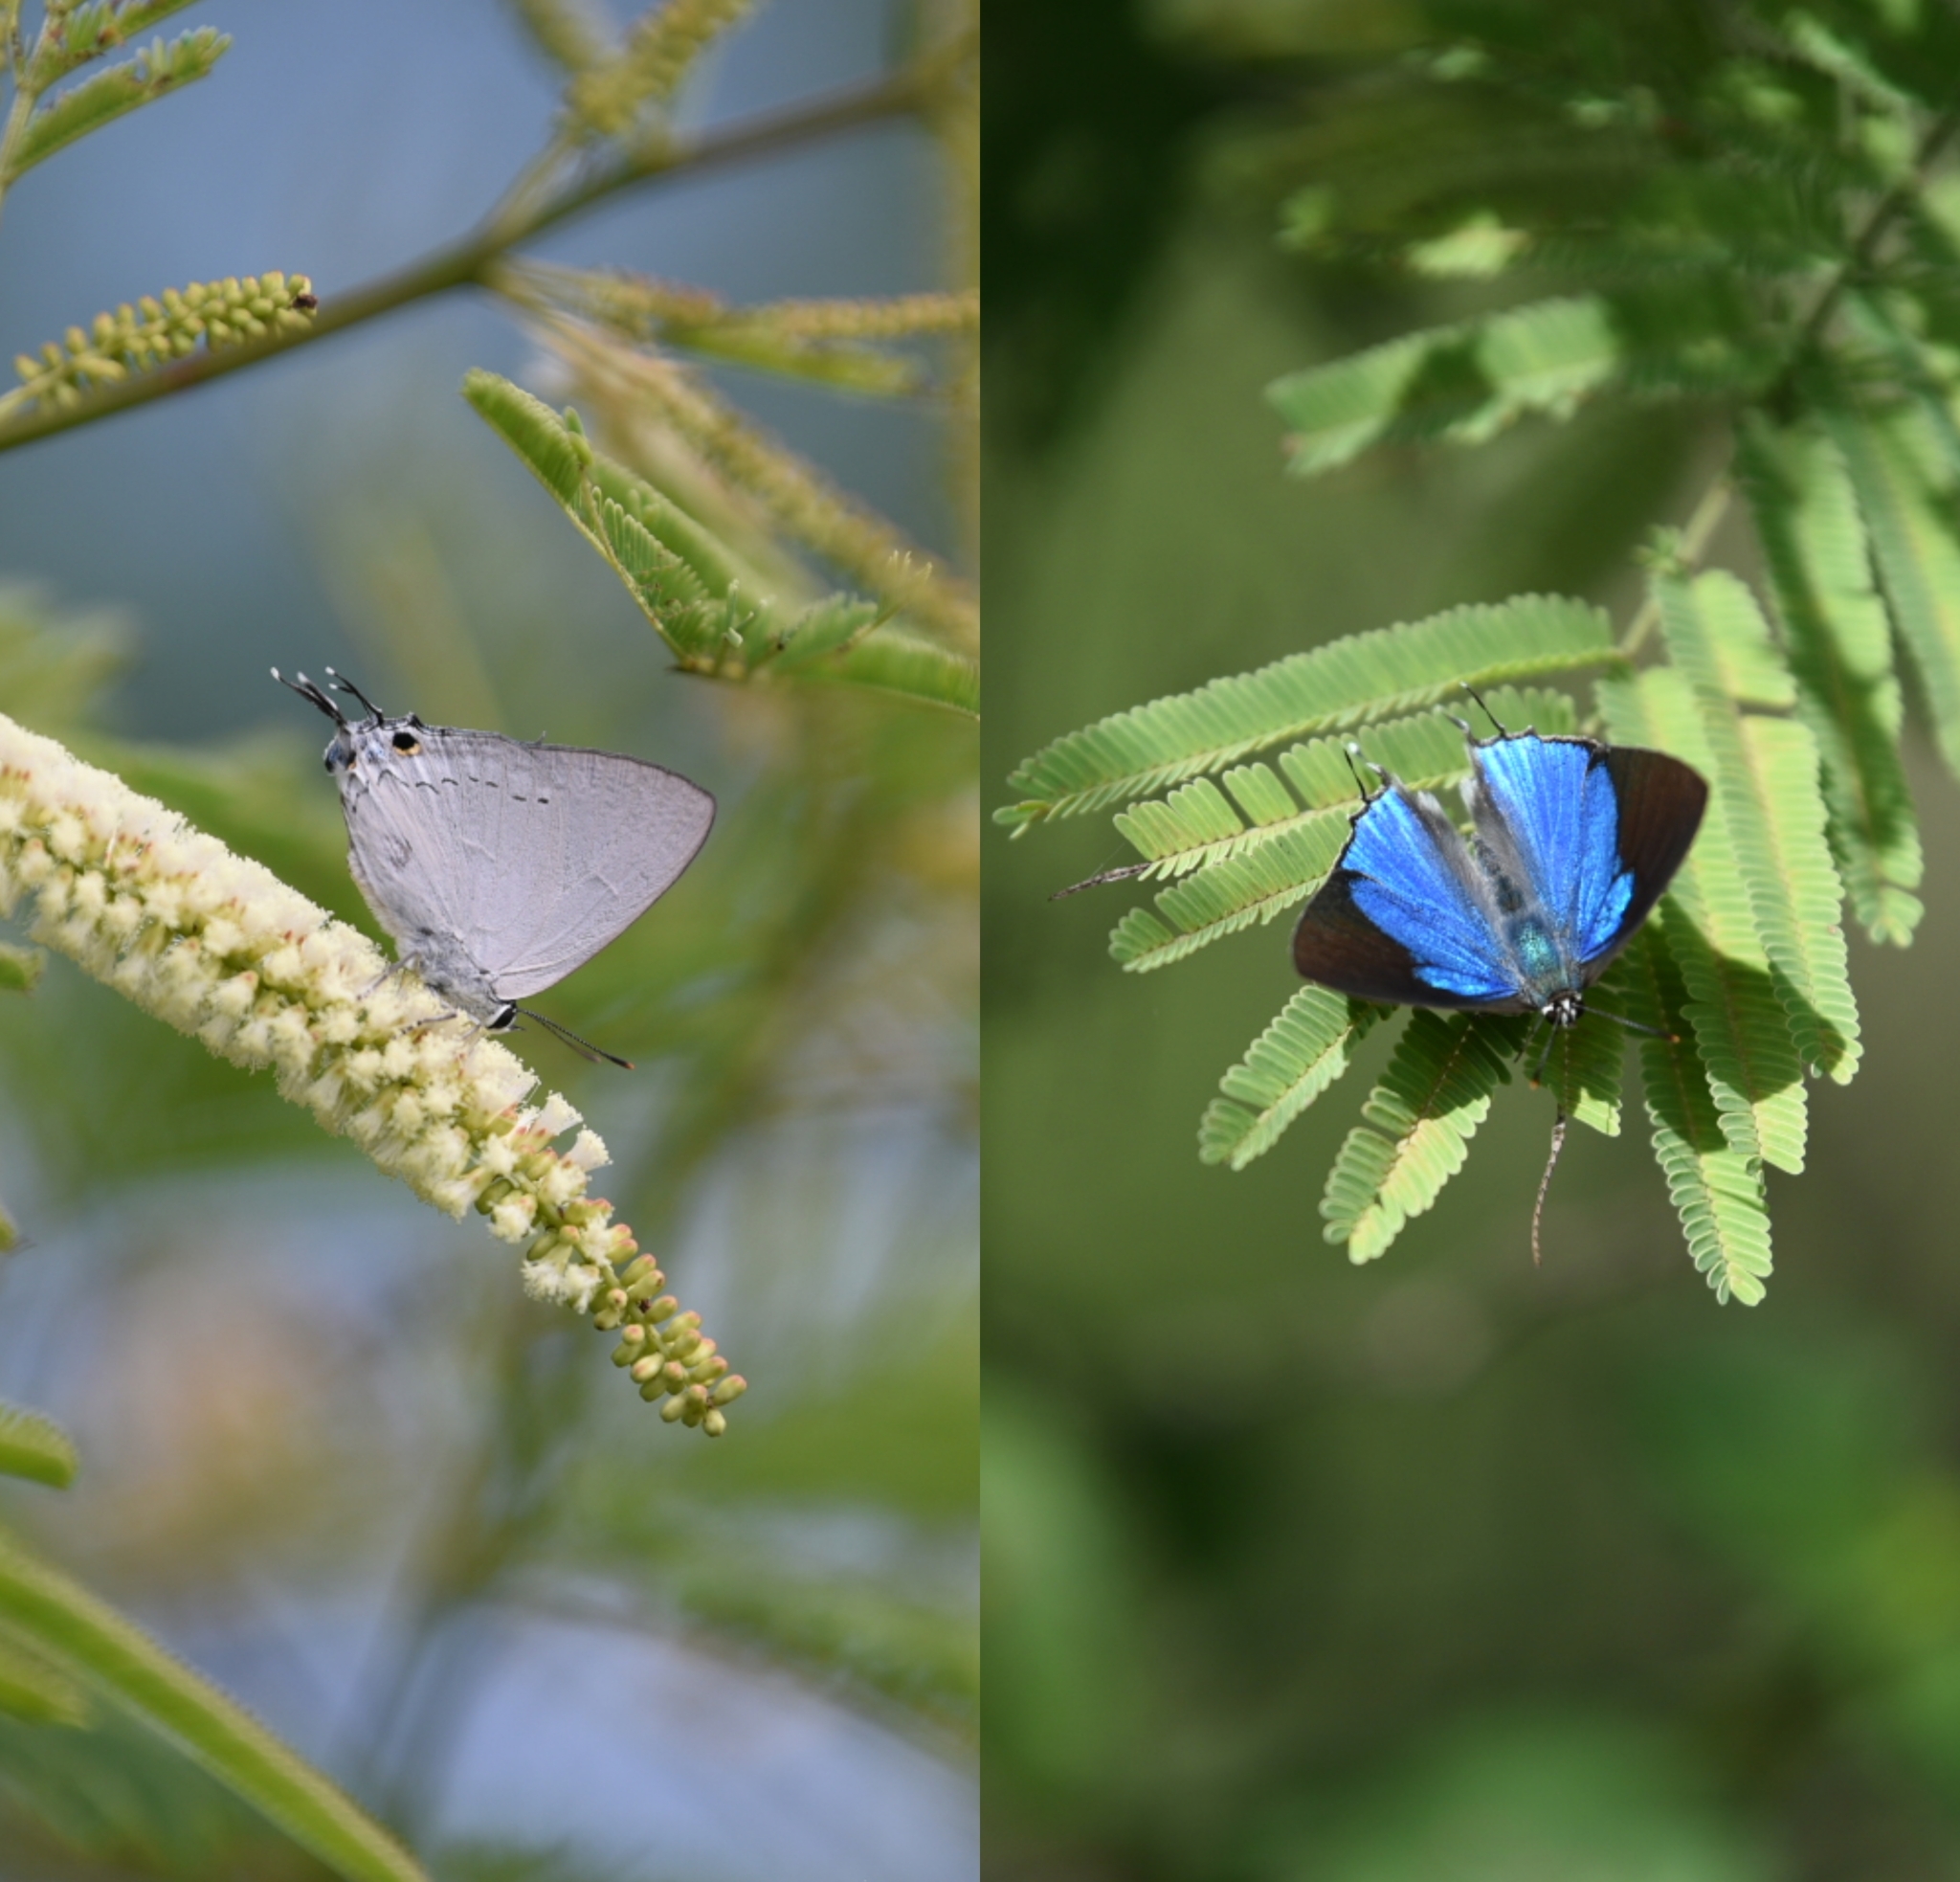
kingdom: Animalia
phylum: Arthropoda
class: Insecta
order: Lepidoptera
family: Lycaenidae
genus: Tajuria
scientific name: Tajuria cippus
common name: Peacock royal
